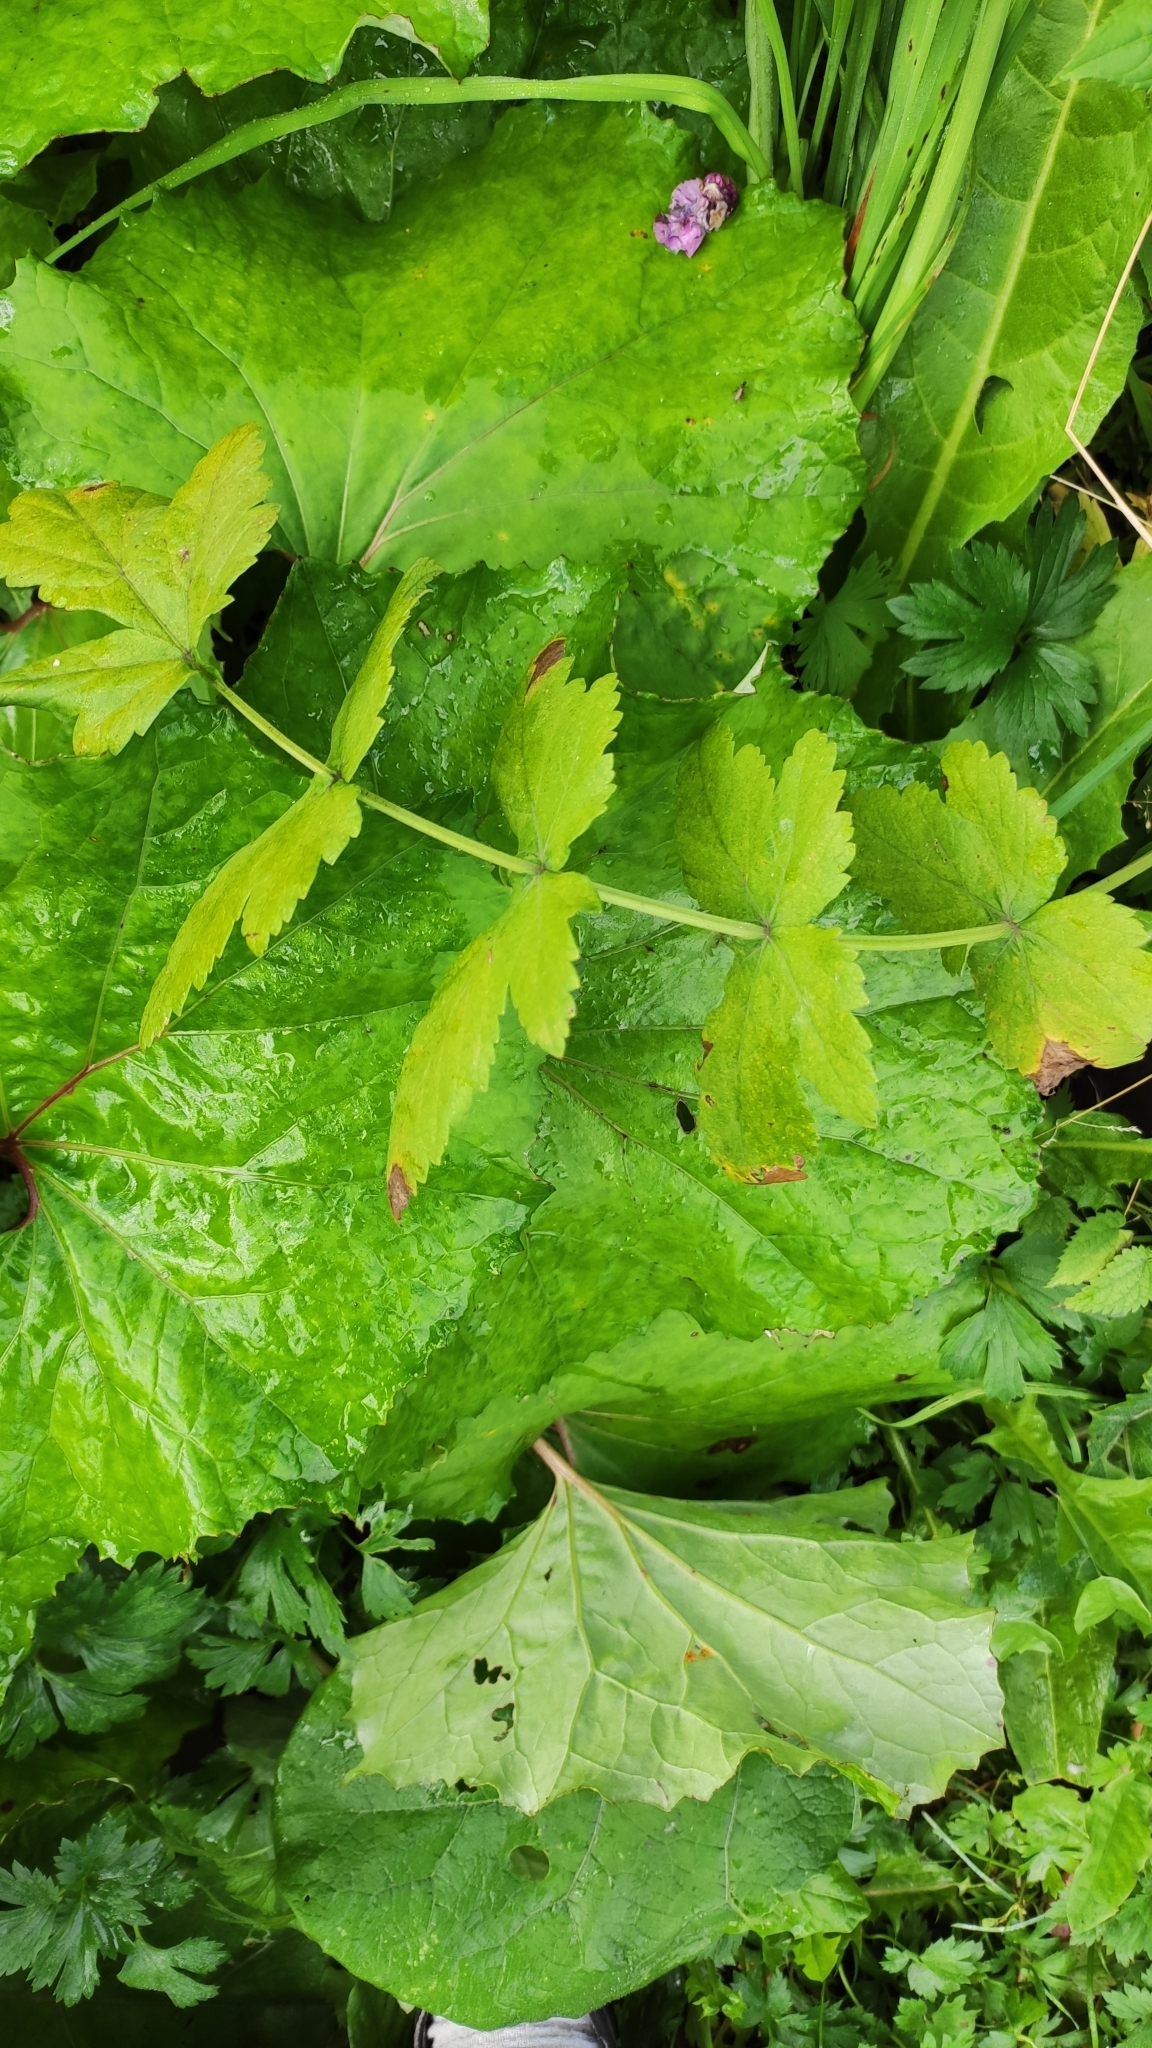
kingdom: Plantae
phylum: Tracheophyta
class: Magnoliopsida
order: Apiales
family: Apiaceae
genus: Pastinaca
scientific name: Pastinaca sativa
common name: Wild parsnip
